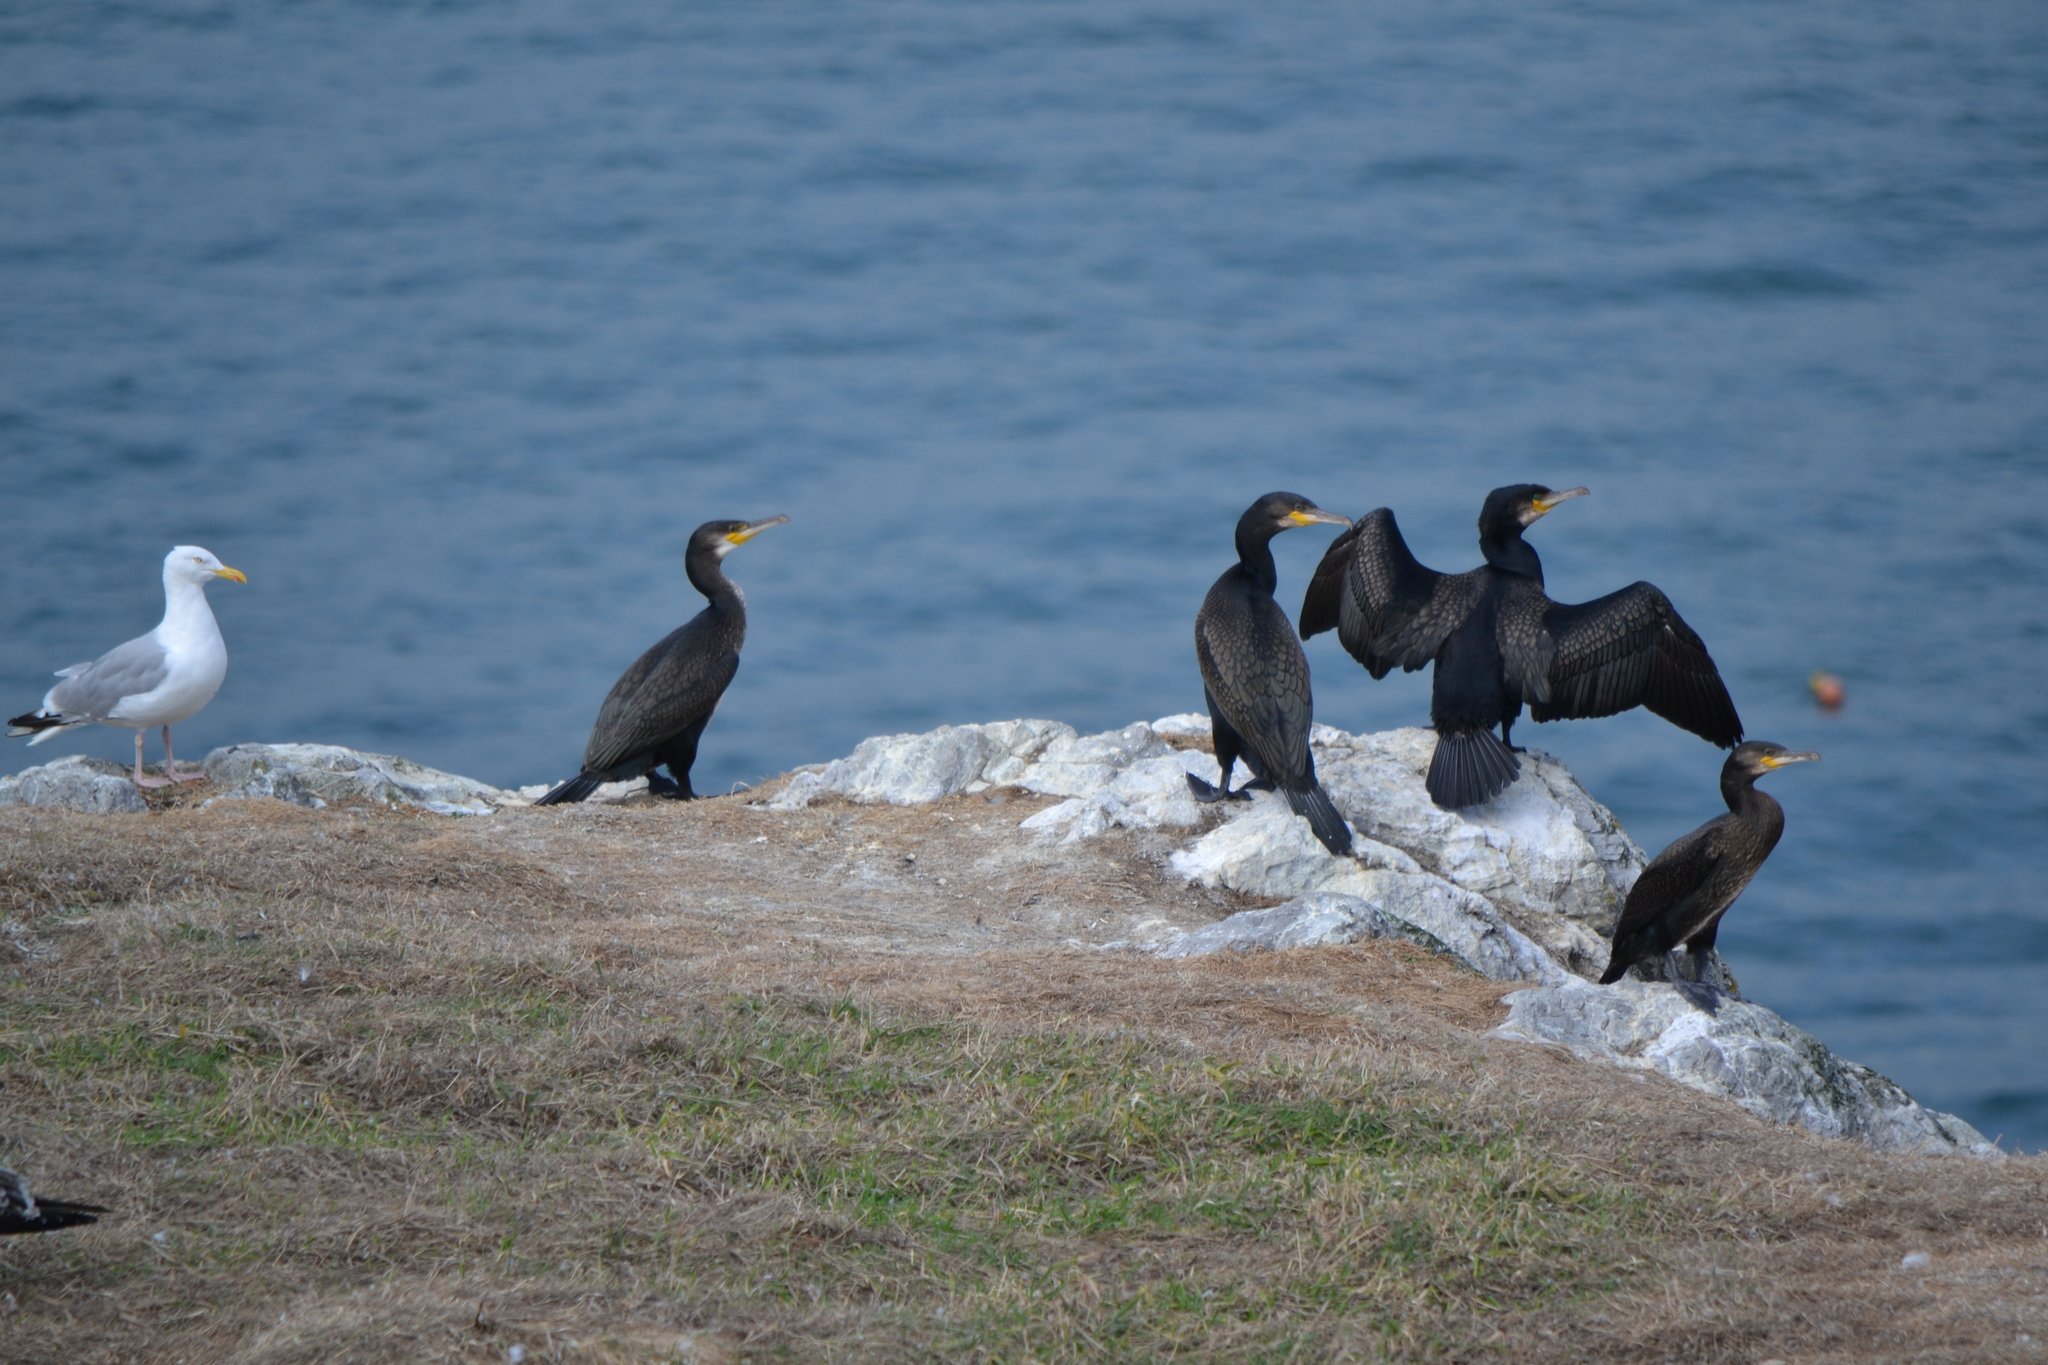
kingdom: Animalia
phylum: Chordata
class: Aves
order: Suliformes
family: Phalacrocoracidae
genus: Phalacrocorax
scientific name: Phalacrocorax carbo
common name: Great cormorant
